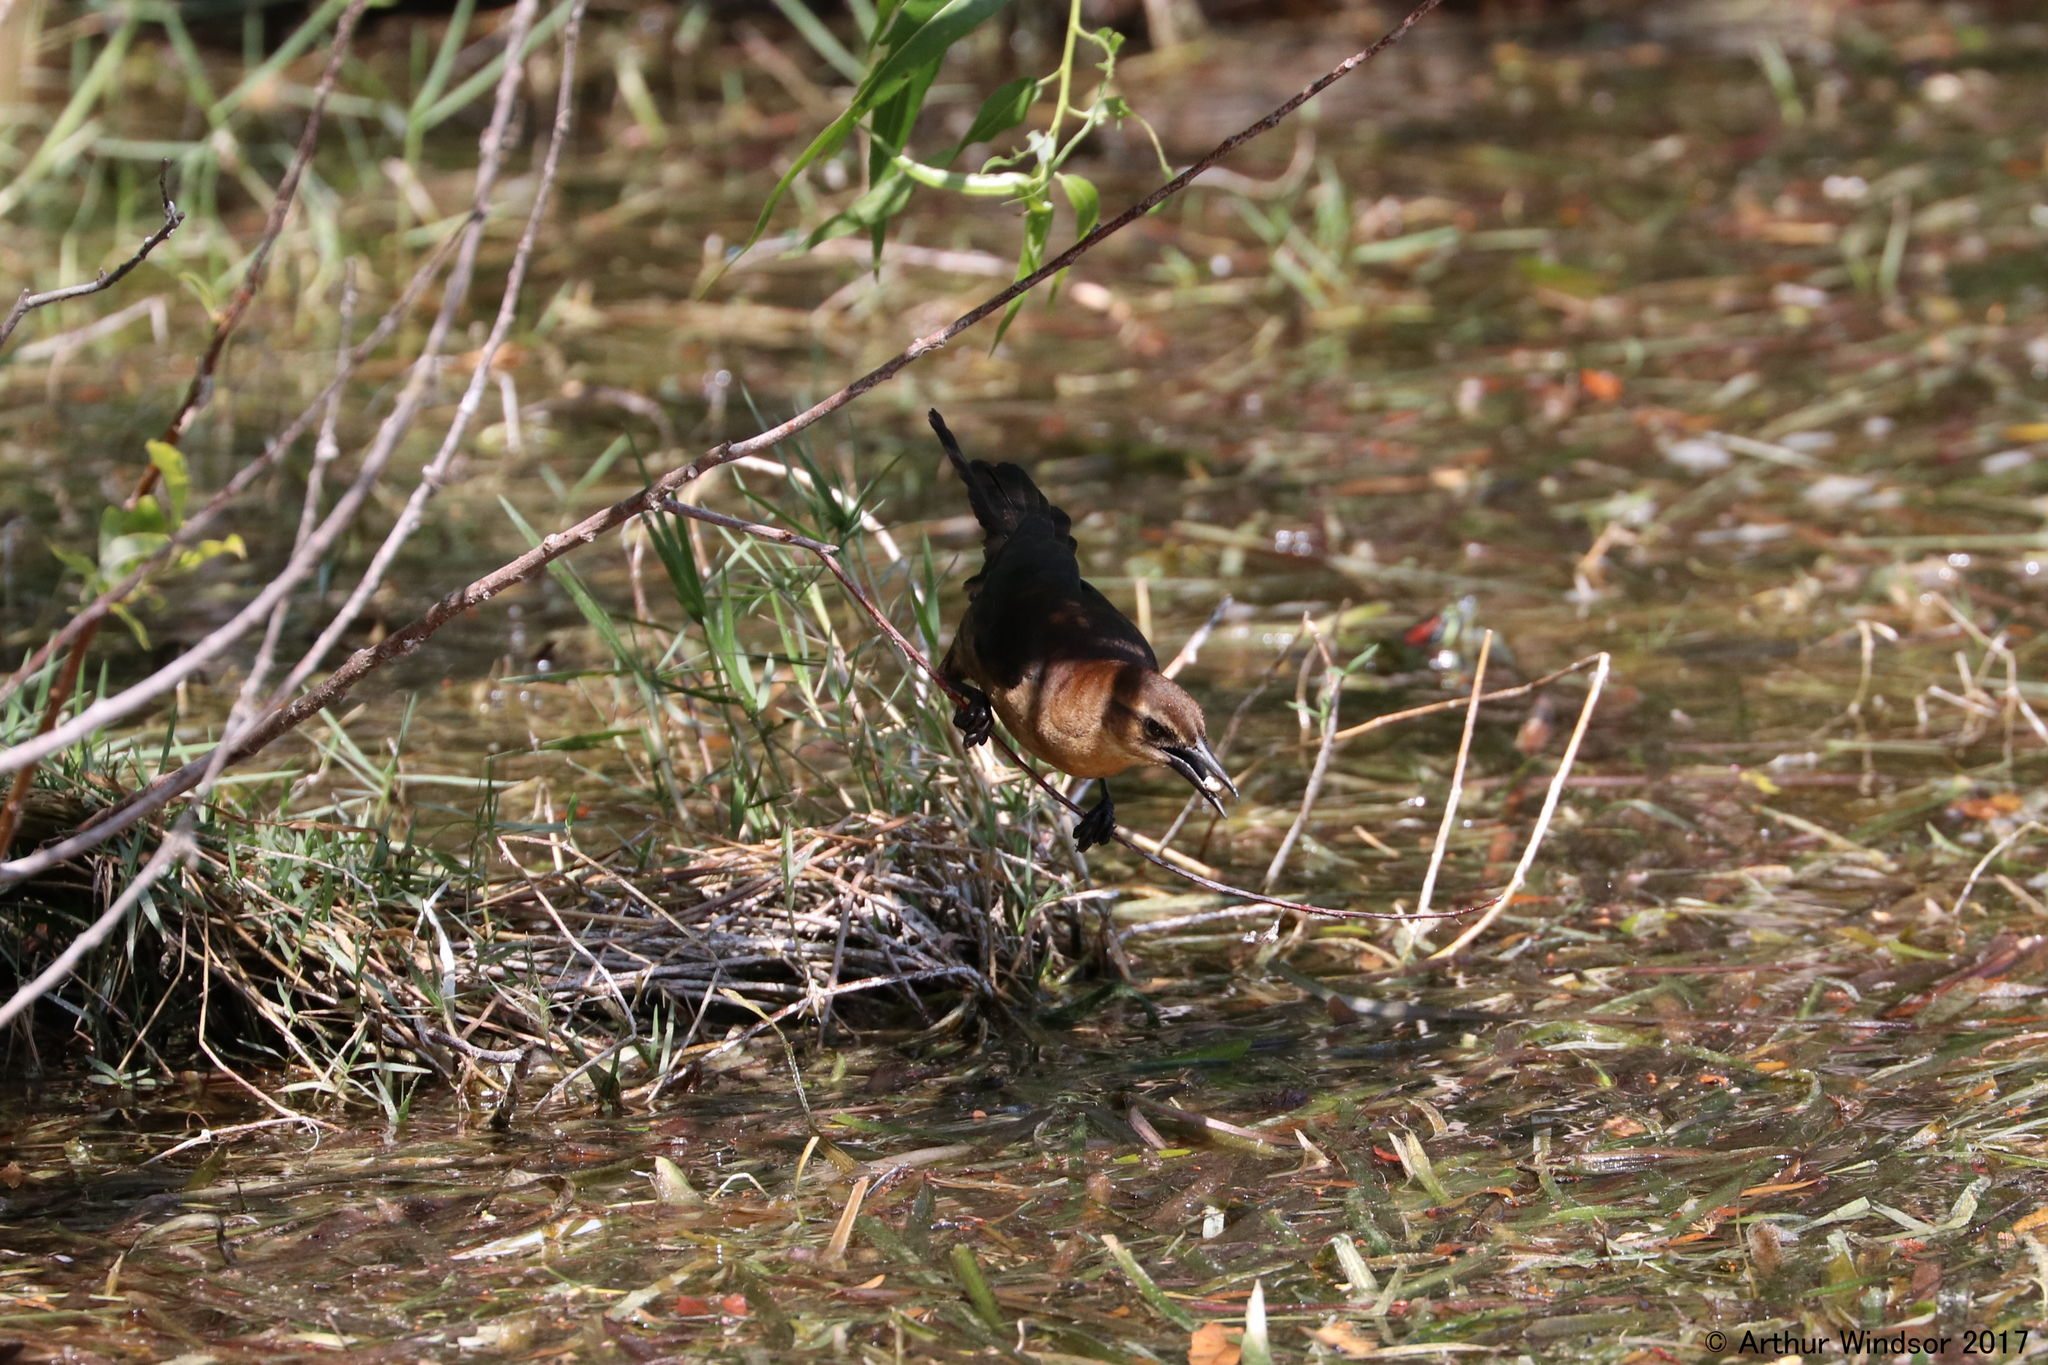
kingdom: Animalia
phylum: Chordata
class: Aves
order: Passeriformes
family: Icteridae
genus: Quiscalus
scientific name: Quiscalus major
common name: Boat-tailed grackle
